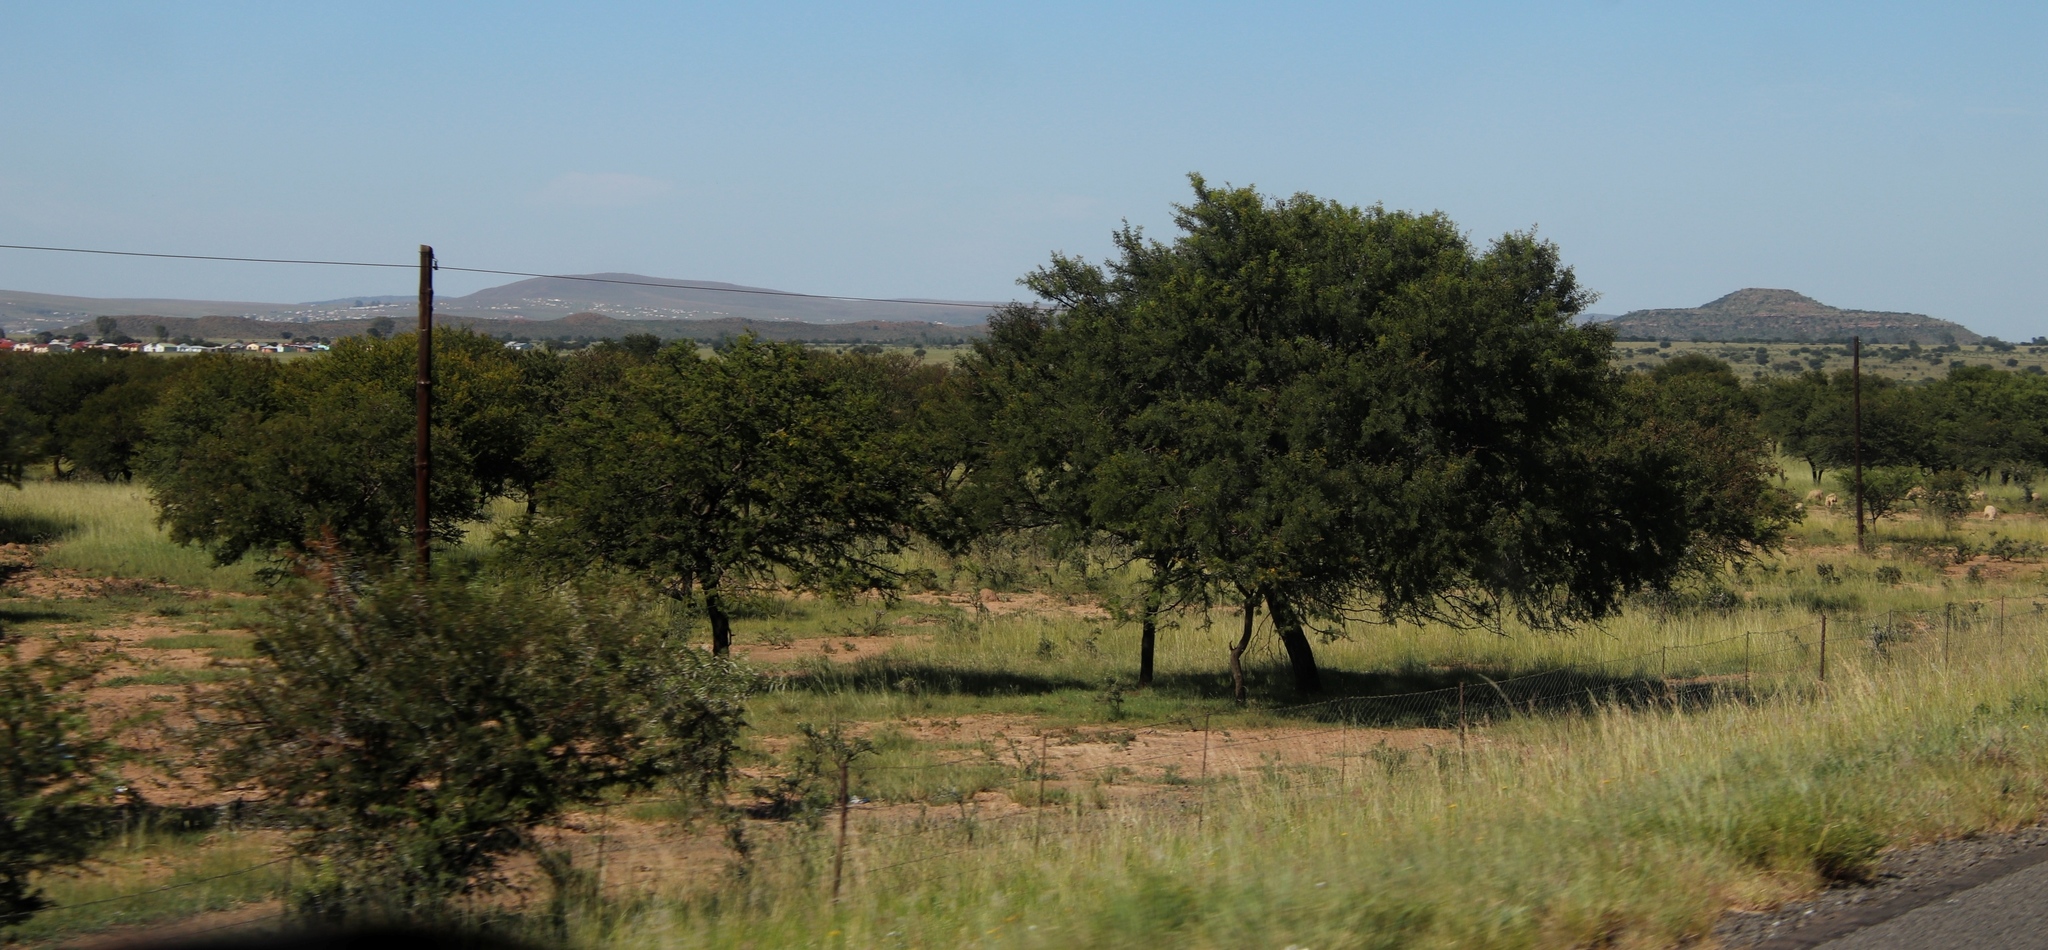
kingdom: Plantae
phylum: Tracheophyta
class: Magnoliopsida
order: Fabales
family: Fabaceae
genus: Vachellia
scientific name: Vachellia karroo
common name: Sweet thorn
